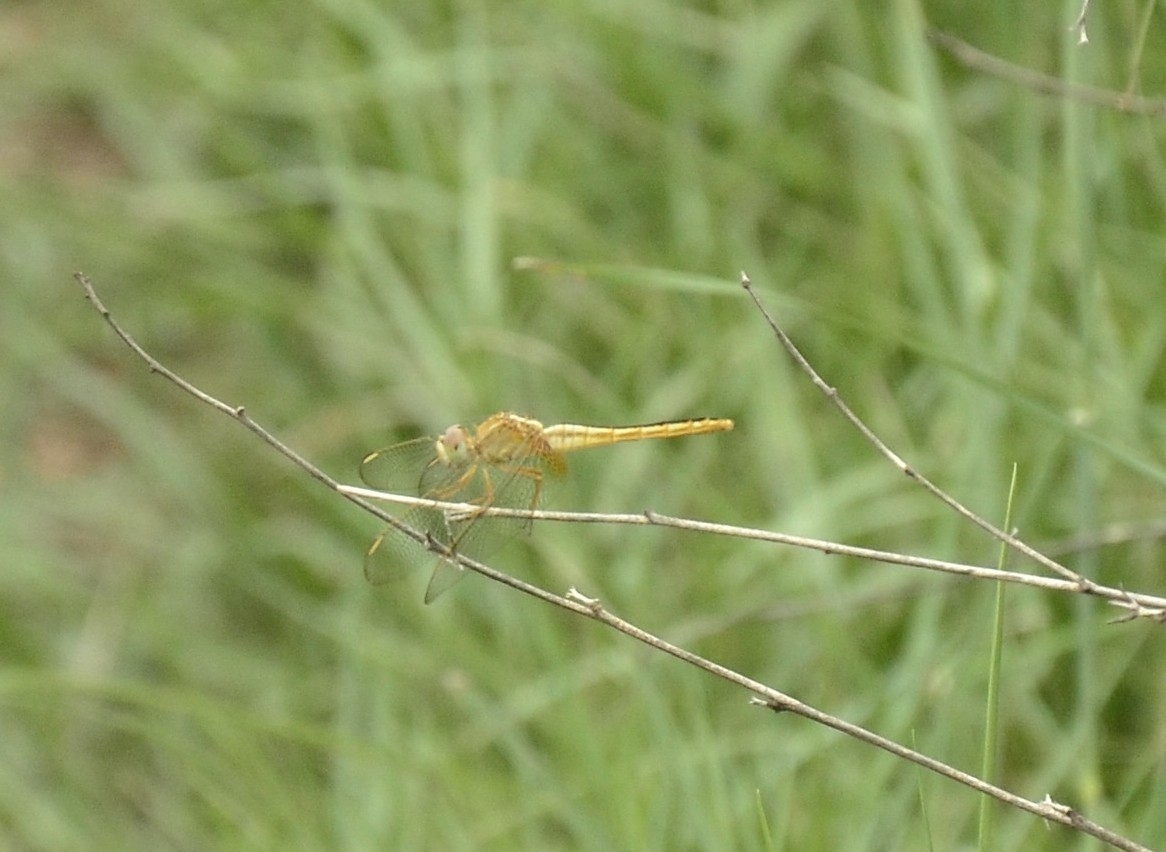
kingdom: Animalia
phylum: Arthropoda
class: Insecta
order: Odonata
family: Libellulidae
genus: Crocothemis
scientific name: Crocothemis servilia
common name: Scarlet skimmer
